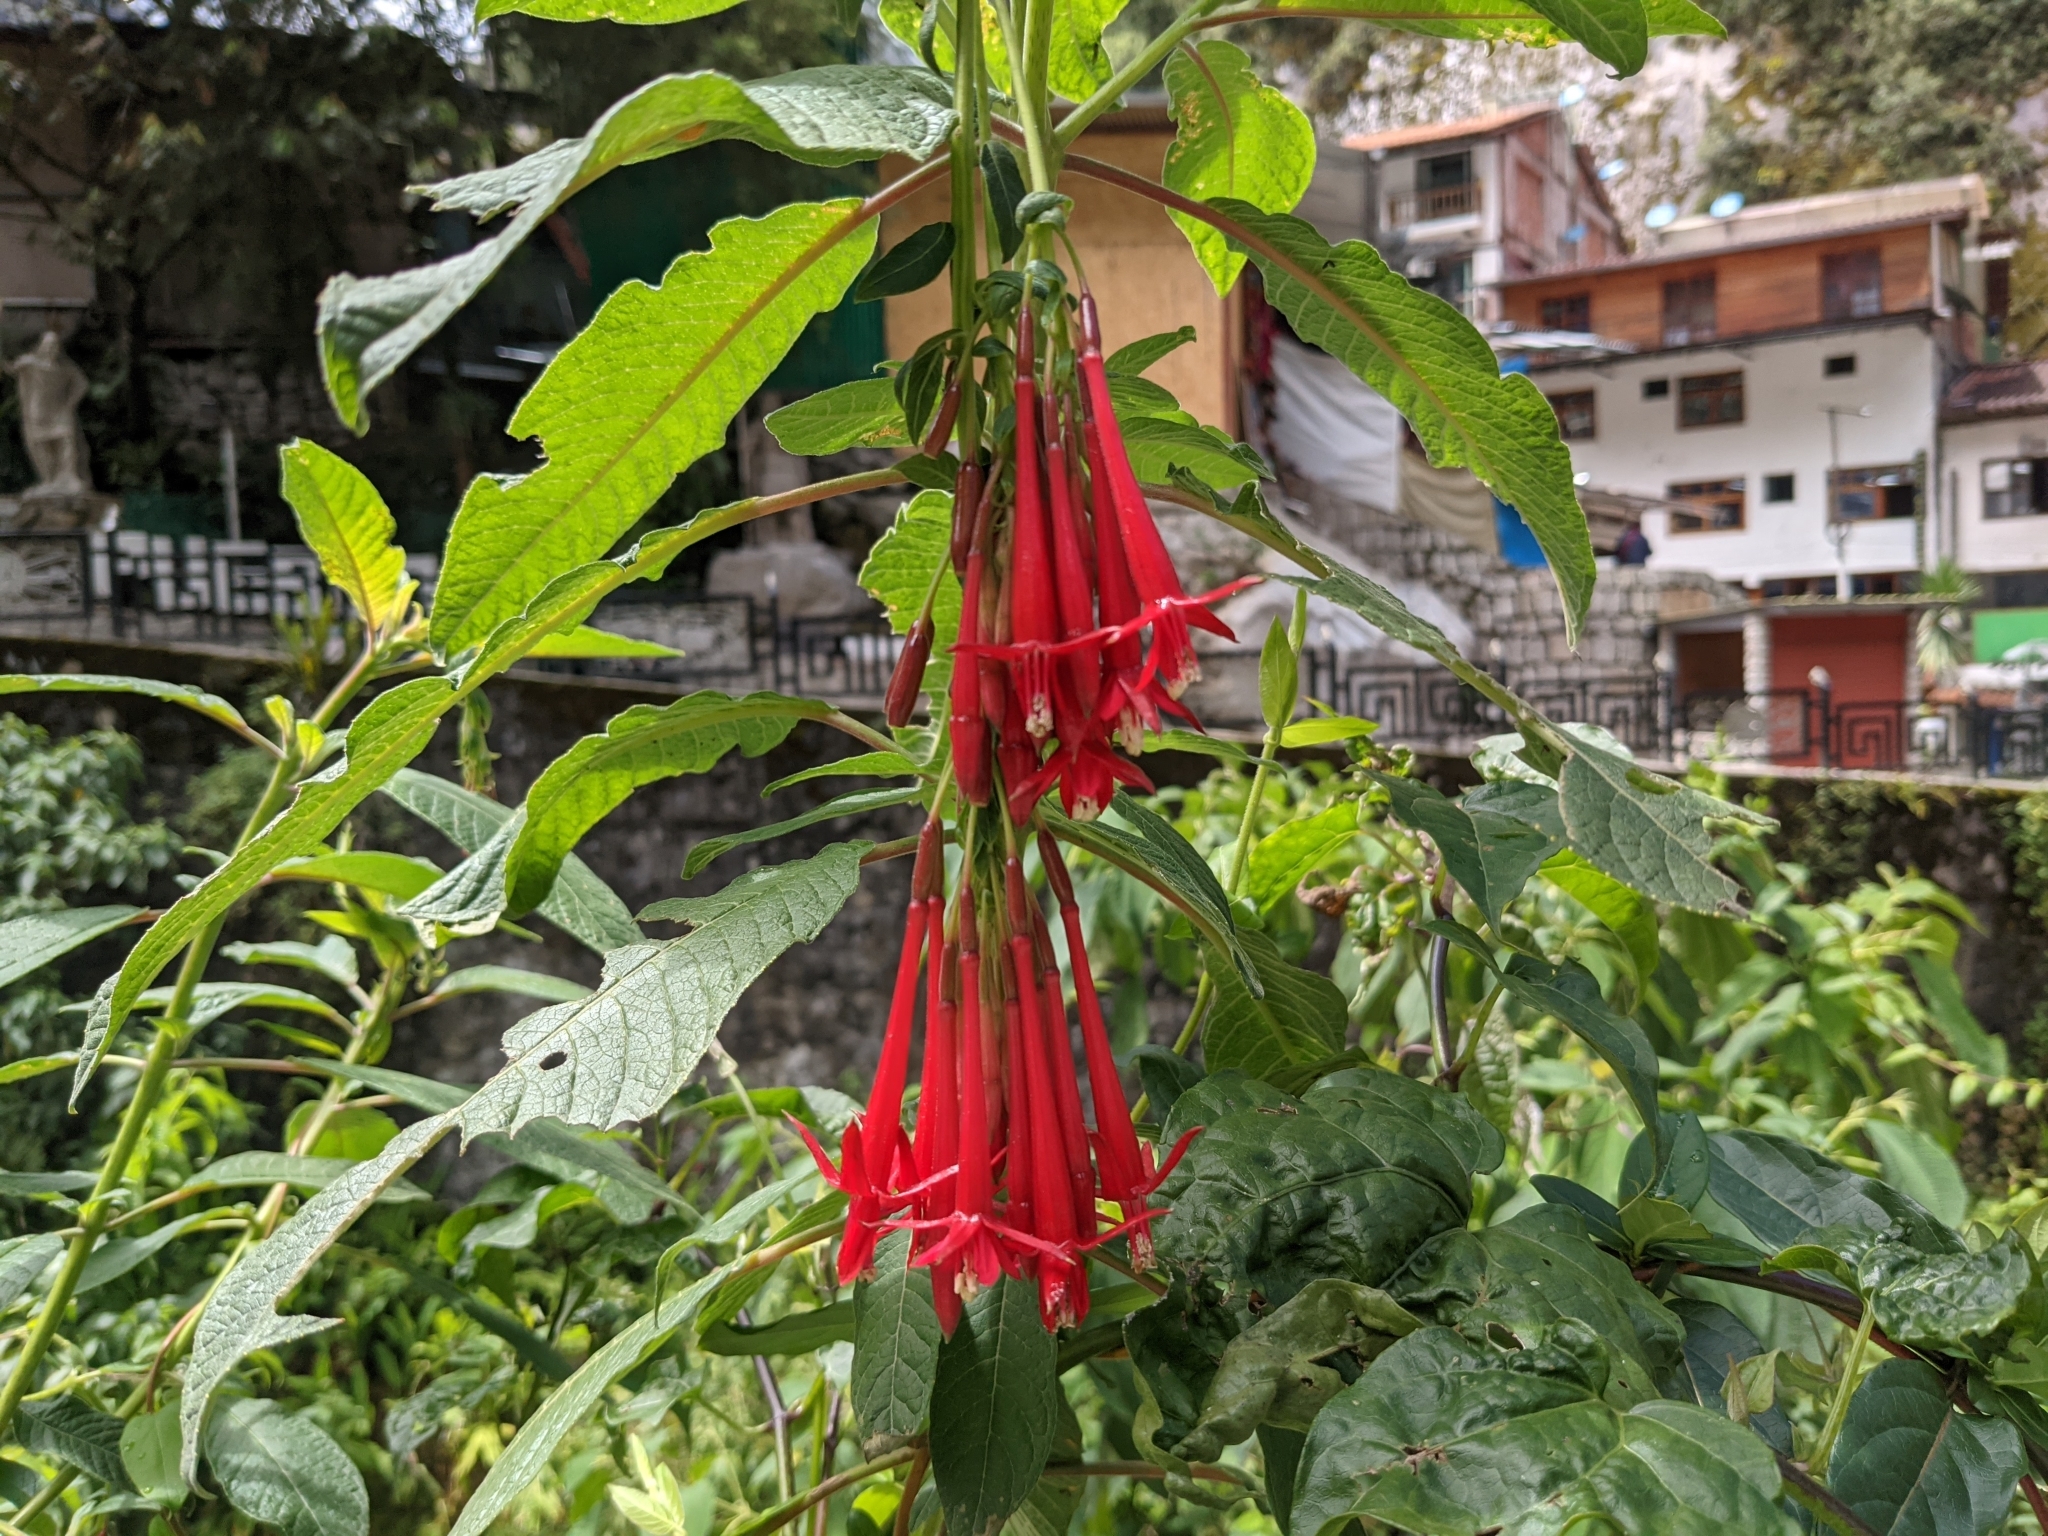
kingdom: Plantae
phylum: Tracheophyta
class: Magnoliopsida
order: Myrtales
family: Onagraceae
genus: Fuchsia
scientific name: Fuchsia boliviana
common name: Bolivian fuchsia
